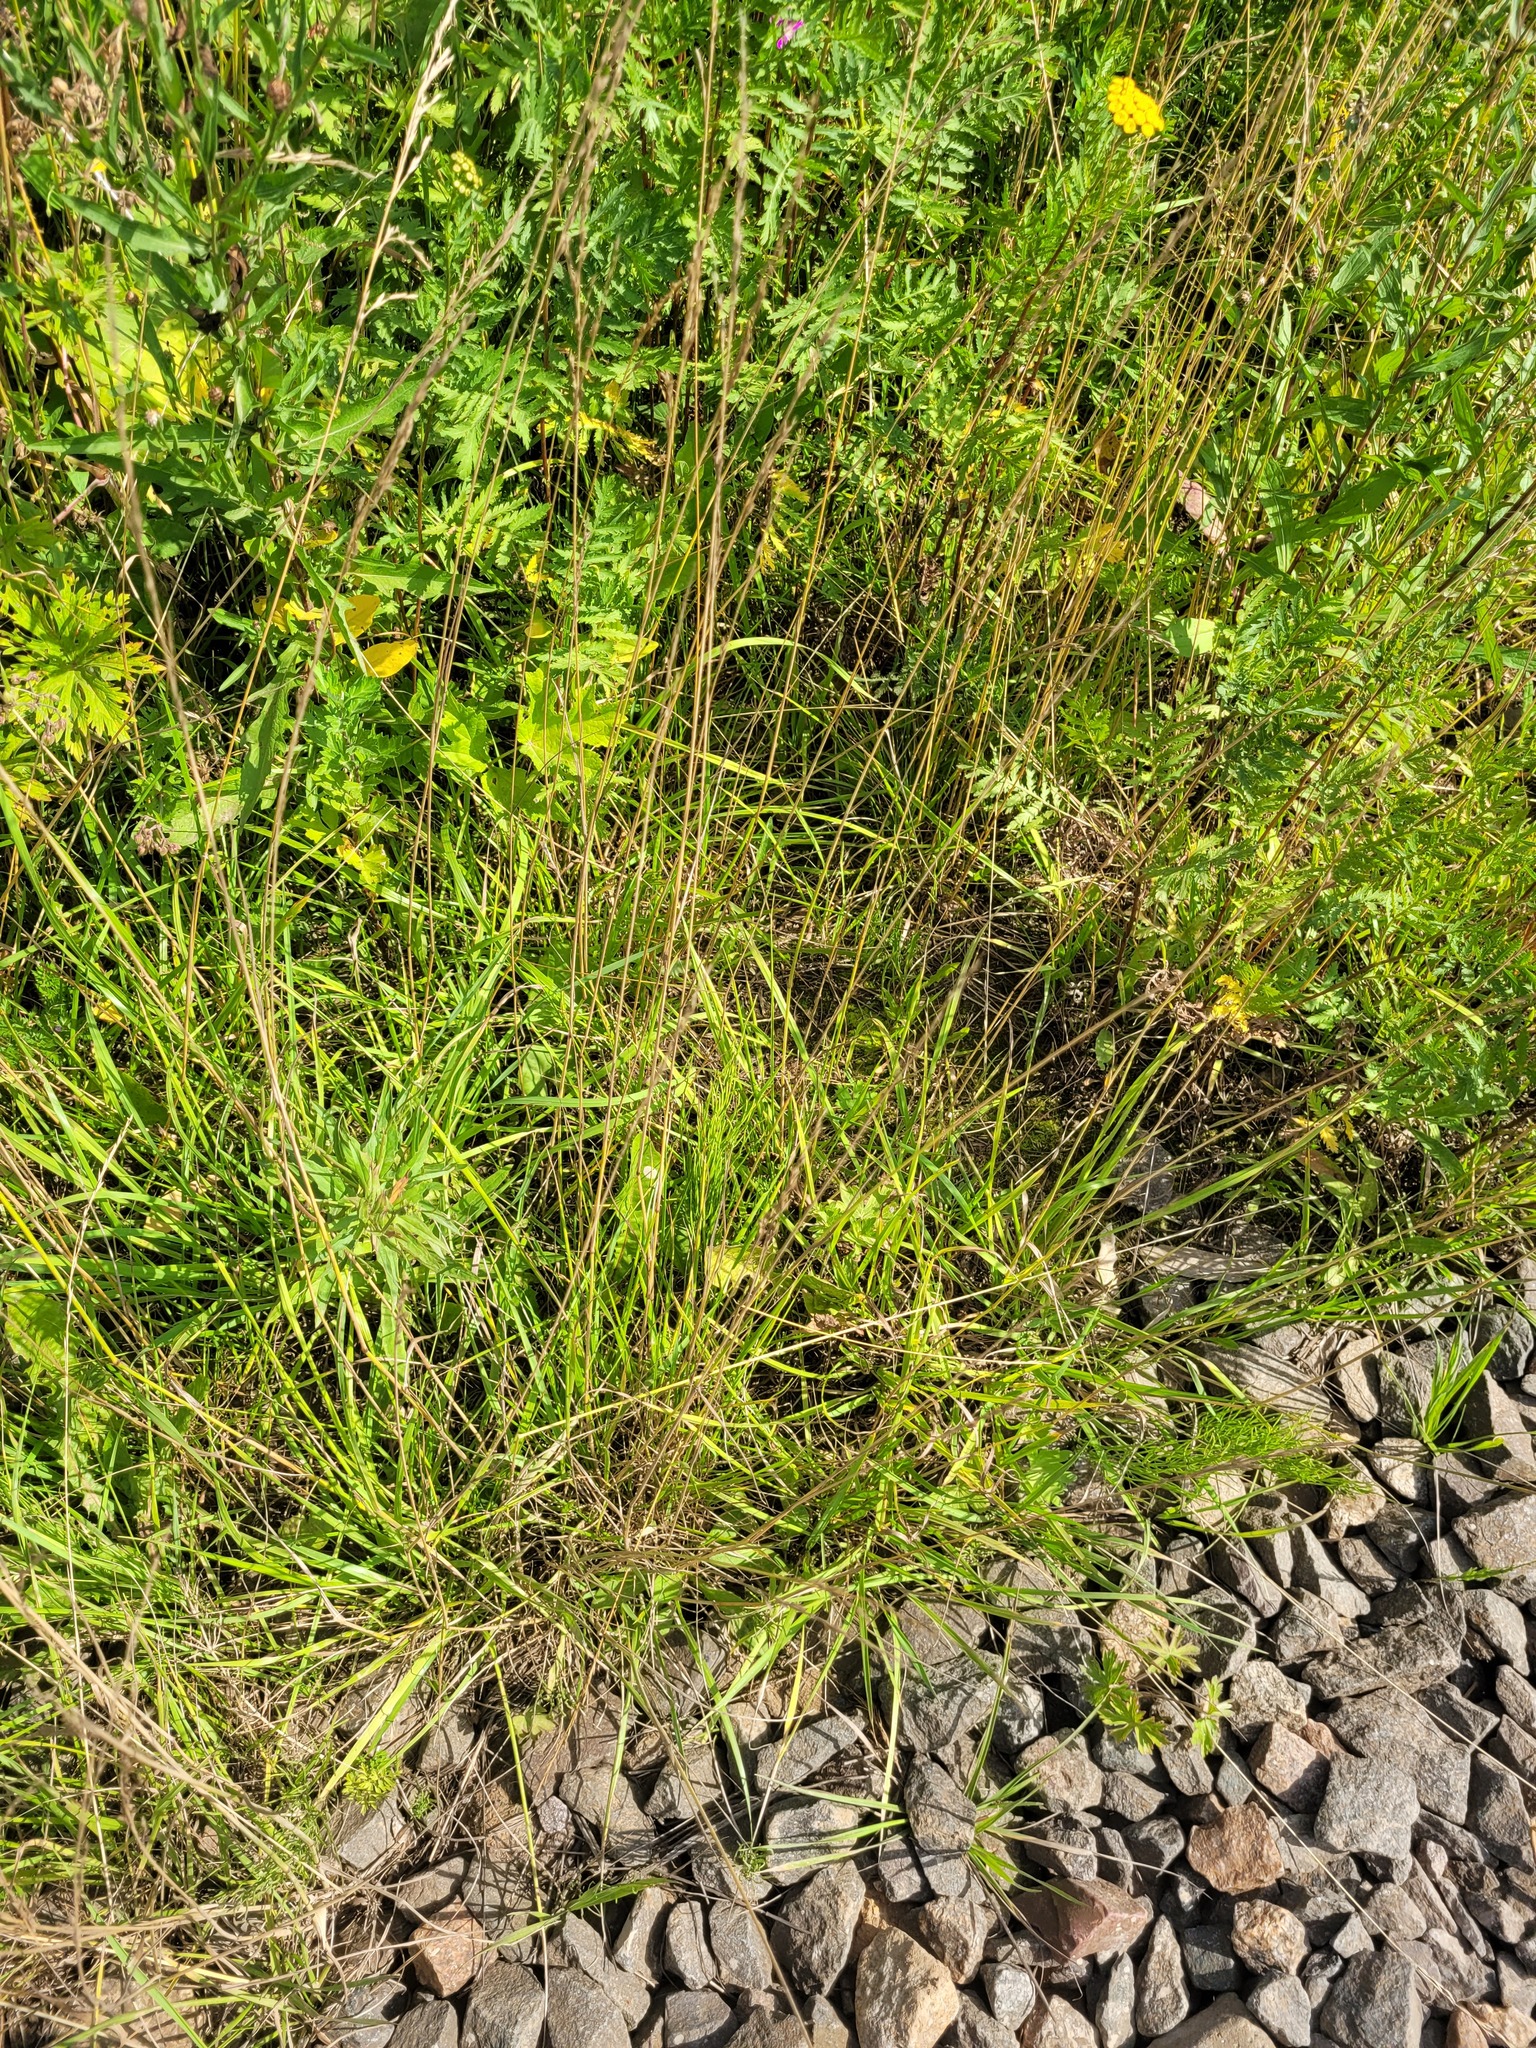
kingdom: Plantae
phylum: Tracheophyta
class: Liliopsida
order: Poales
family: Poaceae
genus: Lolium
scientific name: Lolium pratense
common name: Dover grass
